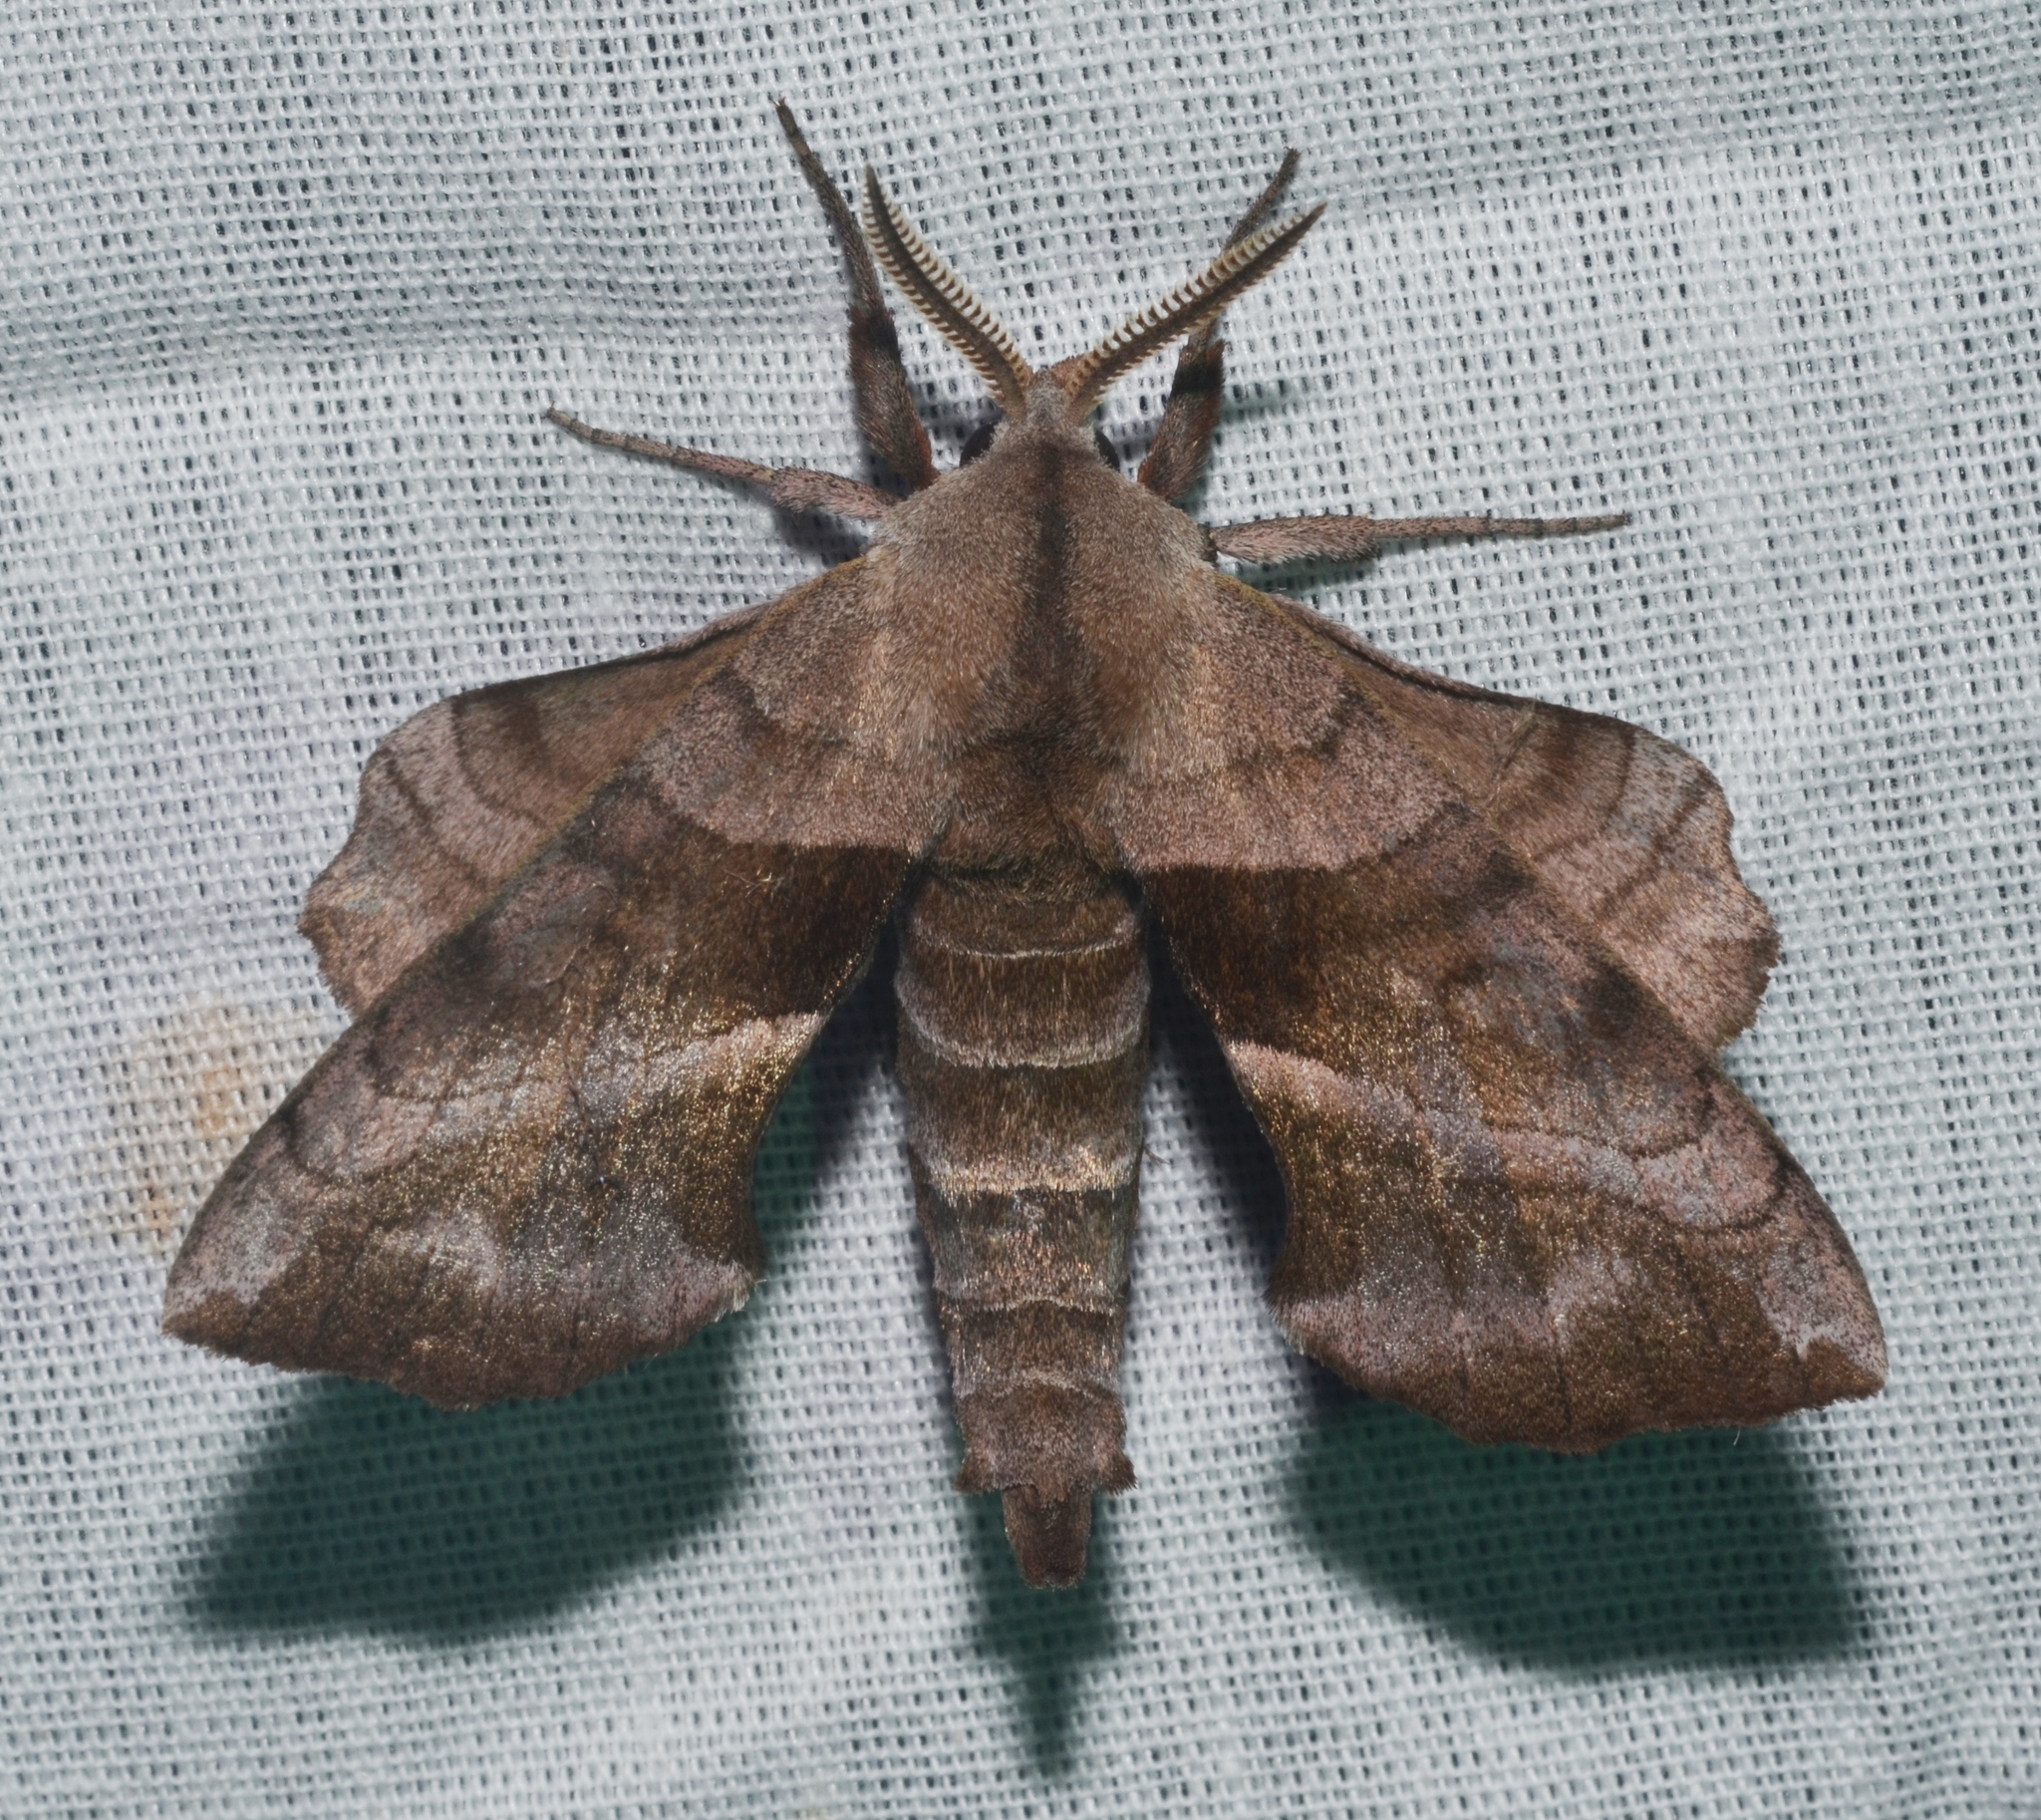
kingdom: Animalia
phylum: Arthropoda
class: Insecta
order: Lepidoptera
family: Sphingidae
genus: Amorpha
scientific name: Amorpha juglandis
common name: Walnut sphinx
